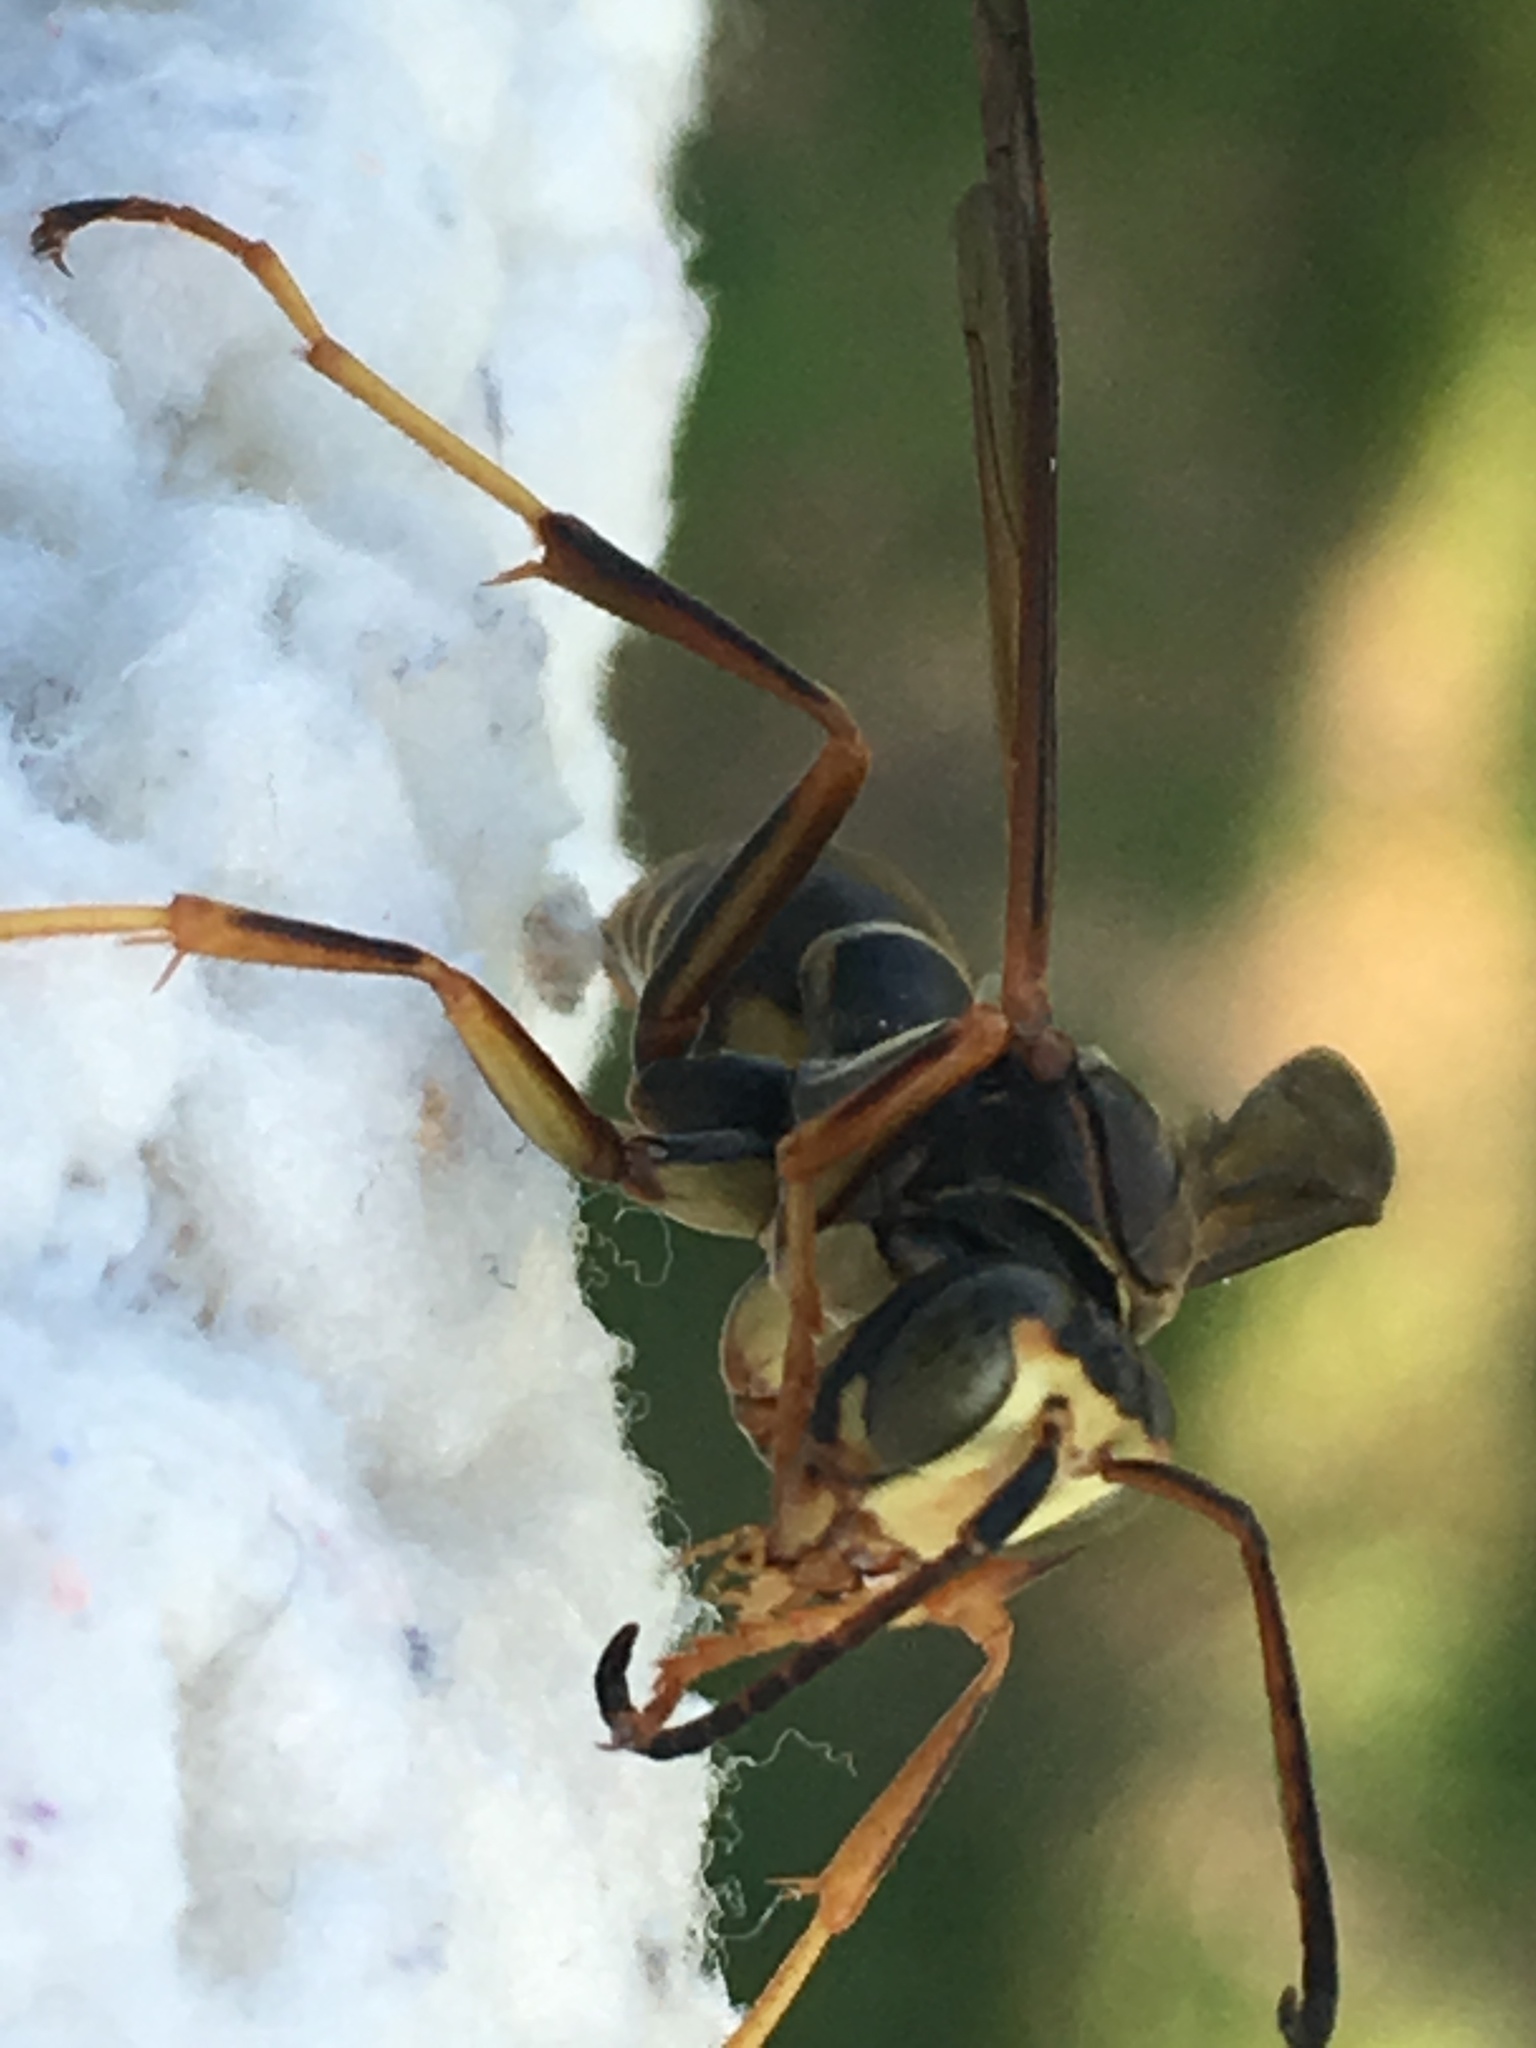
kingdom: Animalia
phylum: Arthropoda
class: Insecta
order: Hymenoptera
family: Eumenidae
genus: Polistes
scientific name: Polistes fuscatus
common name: Dark paper wasp
